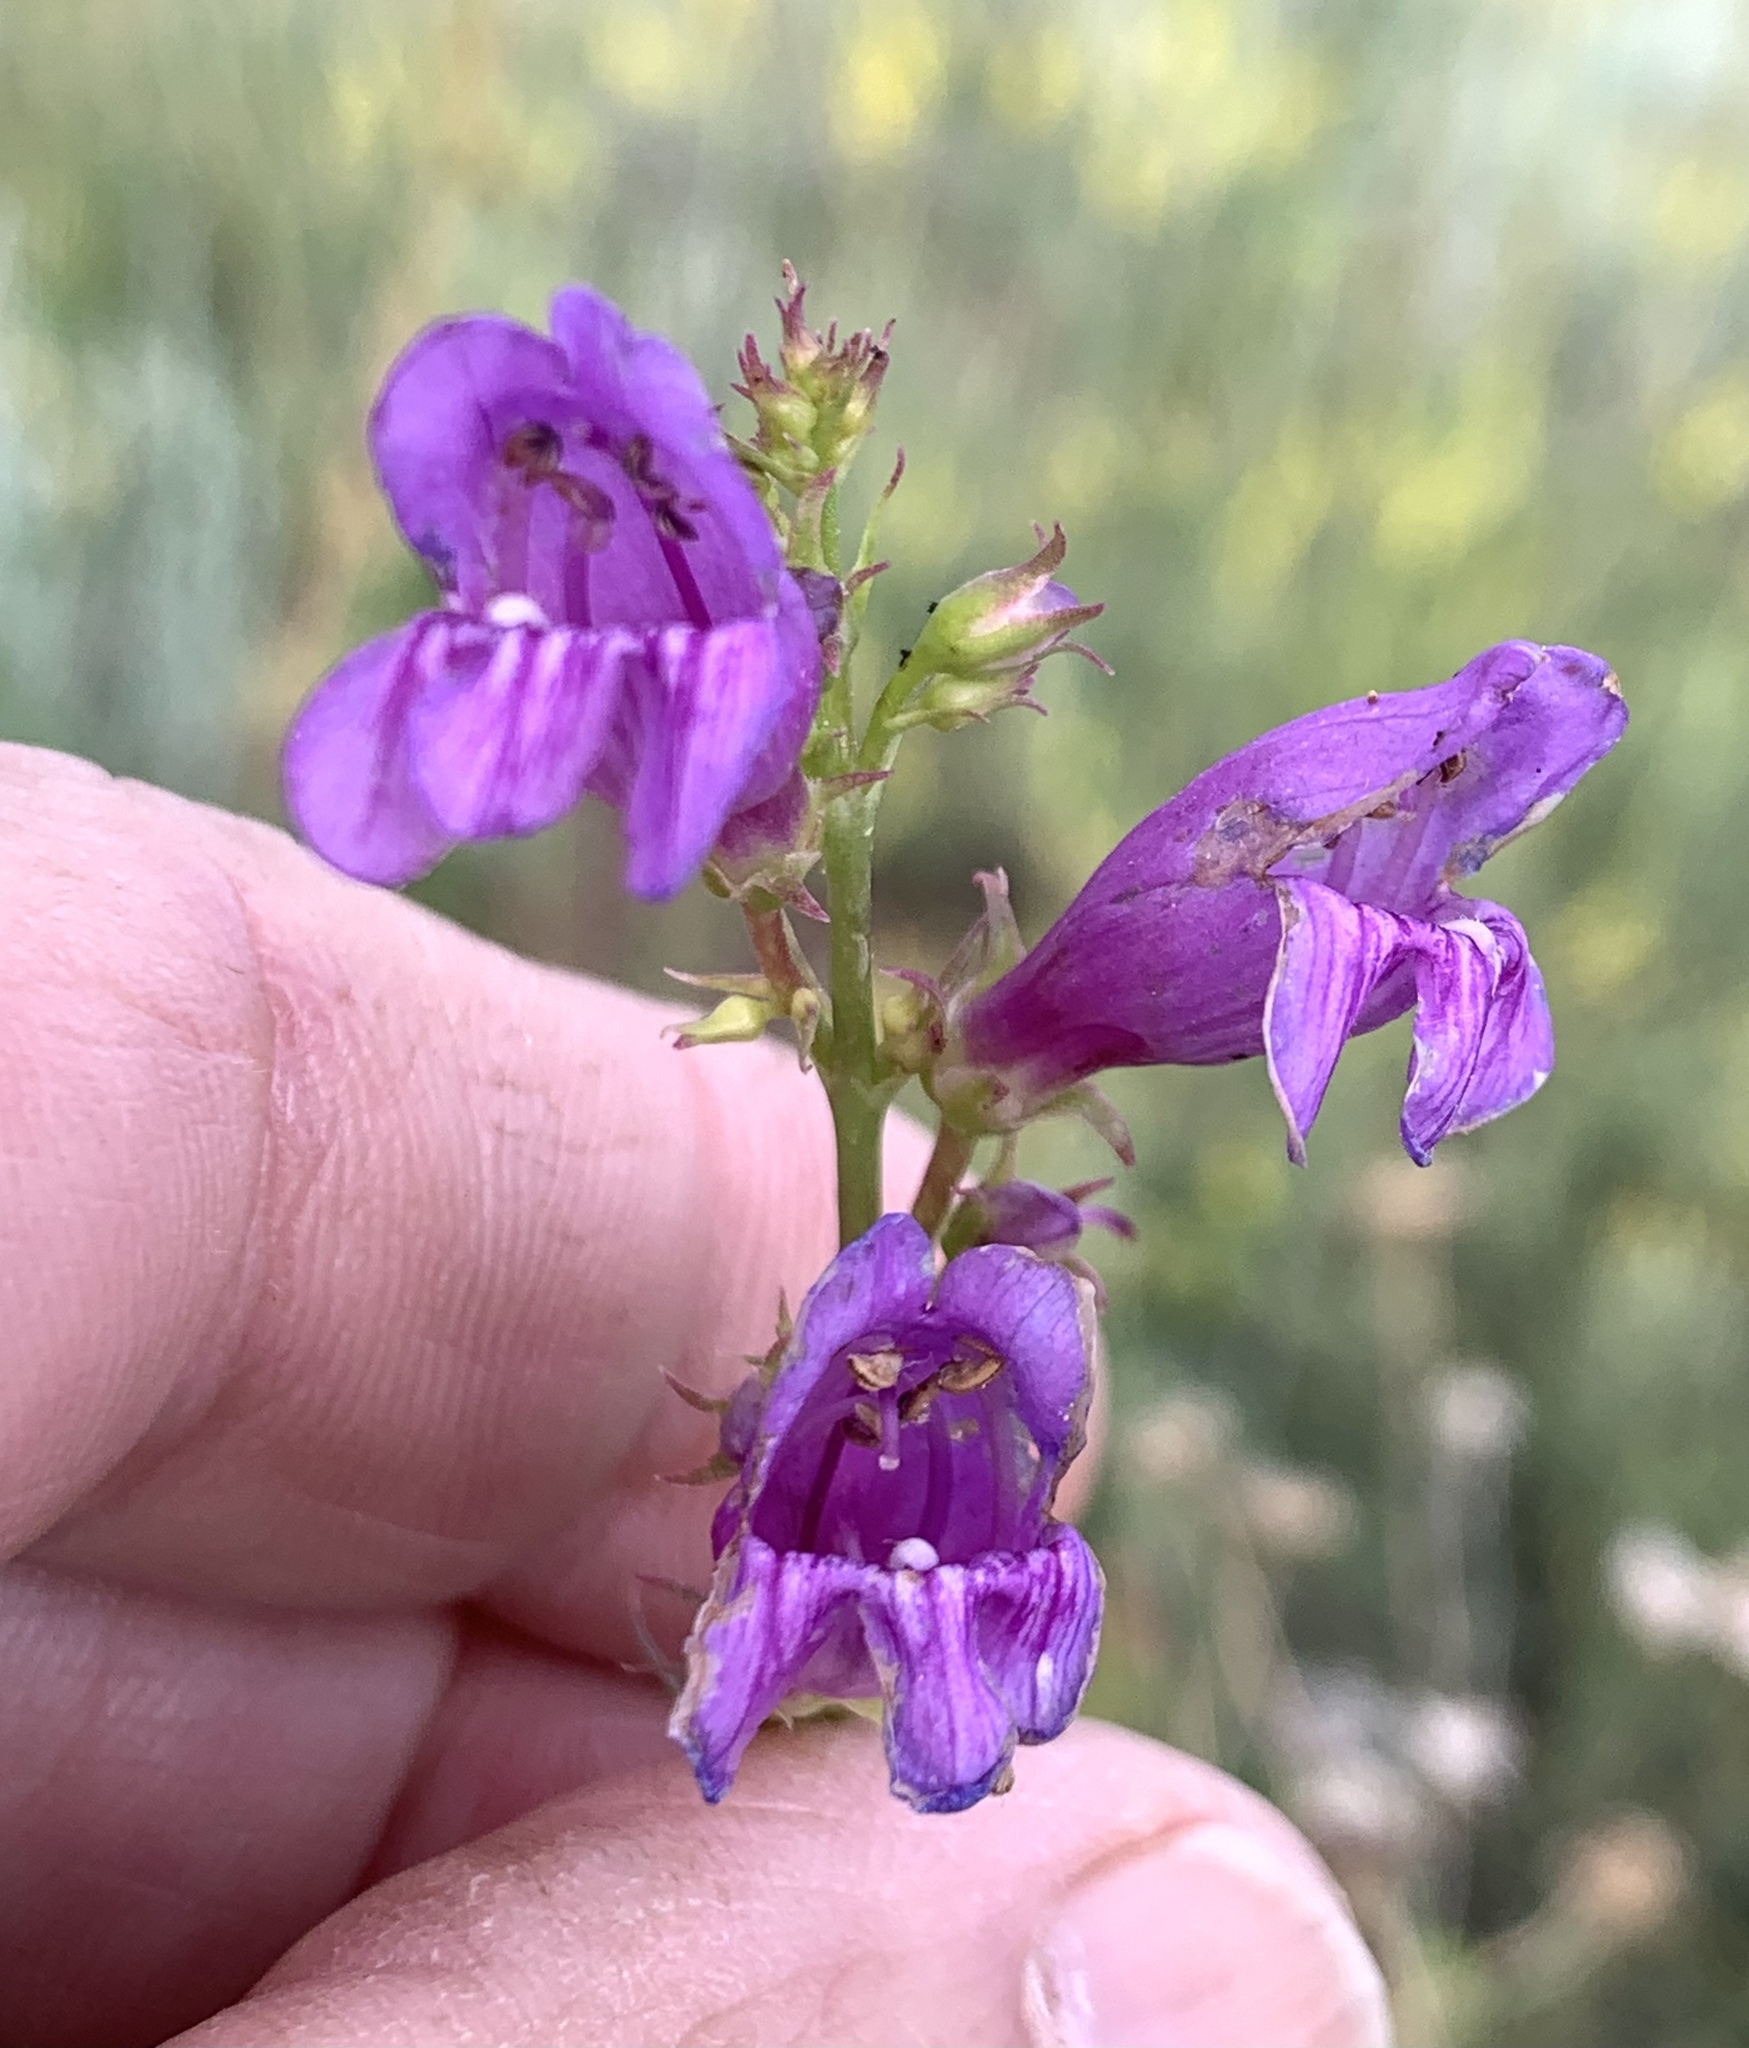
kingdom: Plantae
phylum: Tracheophyta
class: Magnoliopsida
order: Lamiales
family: Plantaginaceae
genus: Penstemon
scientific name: Penstemon strictus
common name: Rocky mountain penstemon
